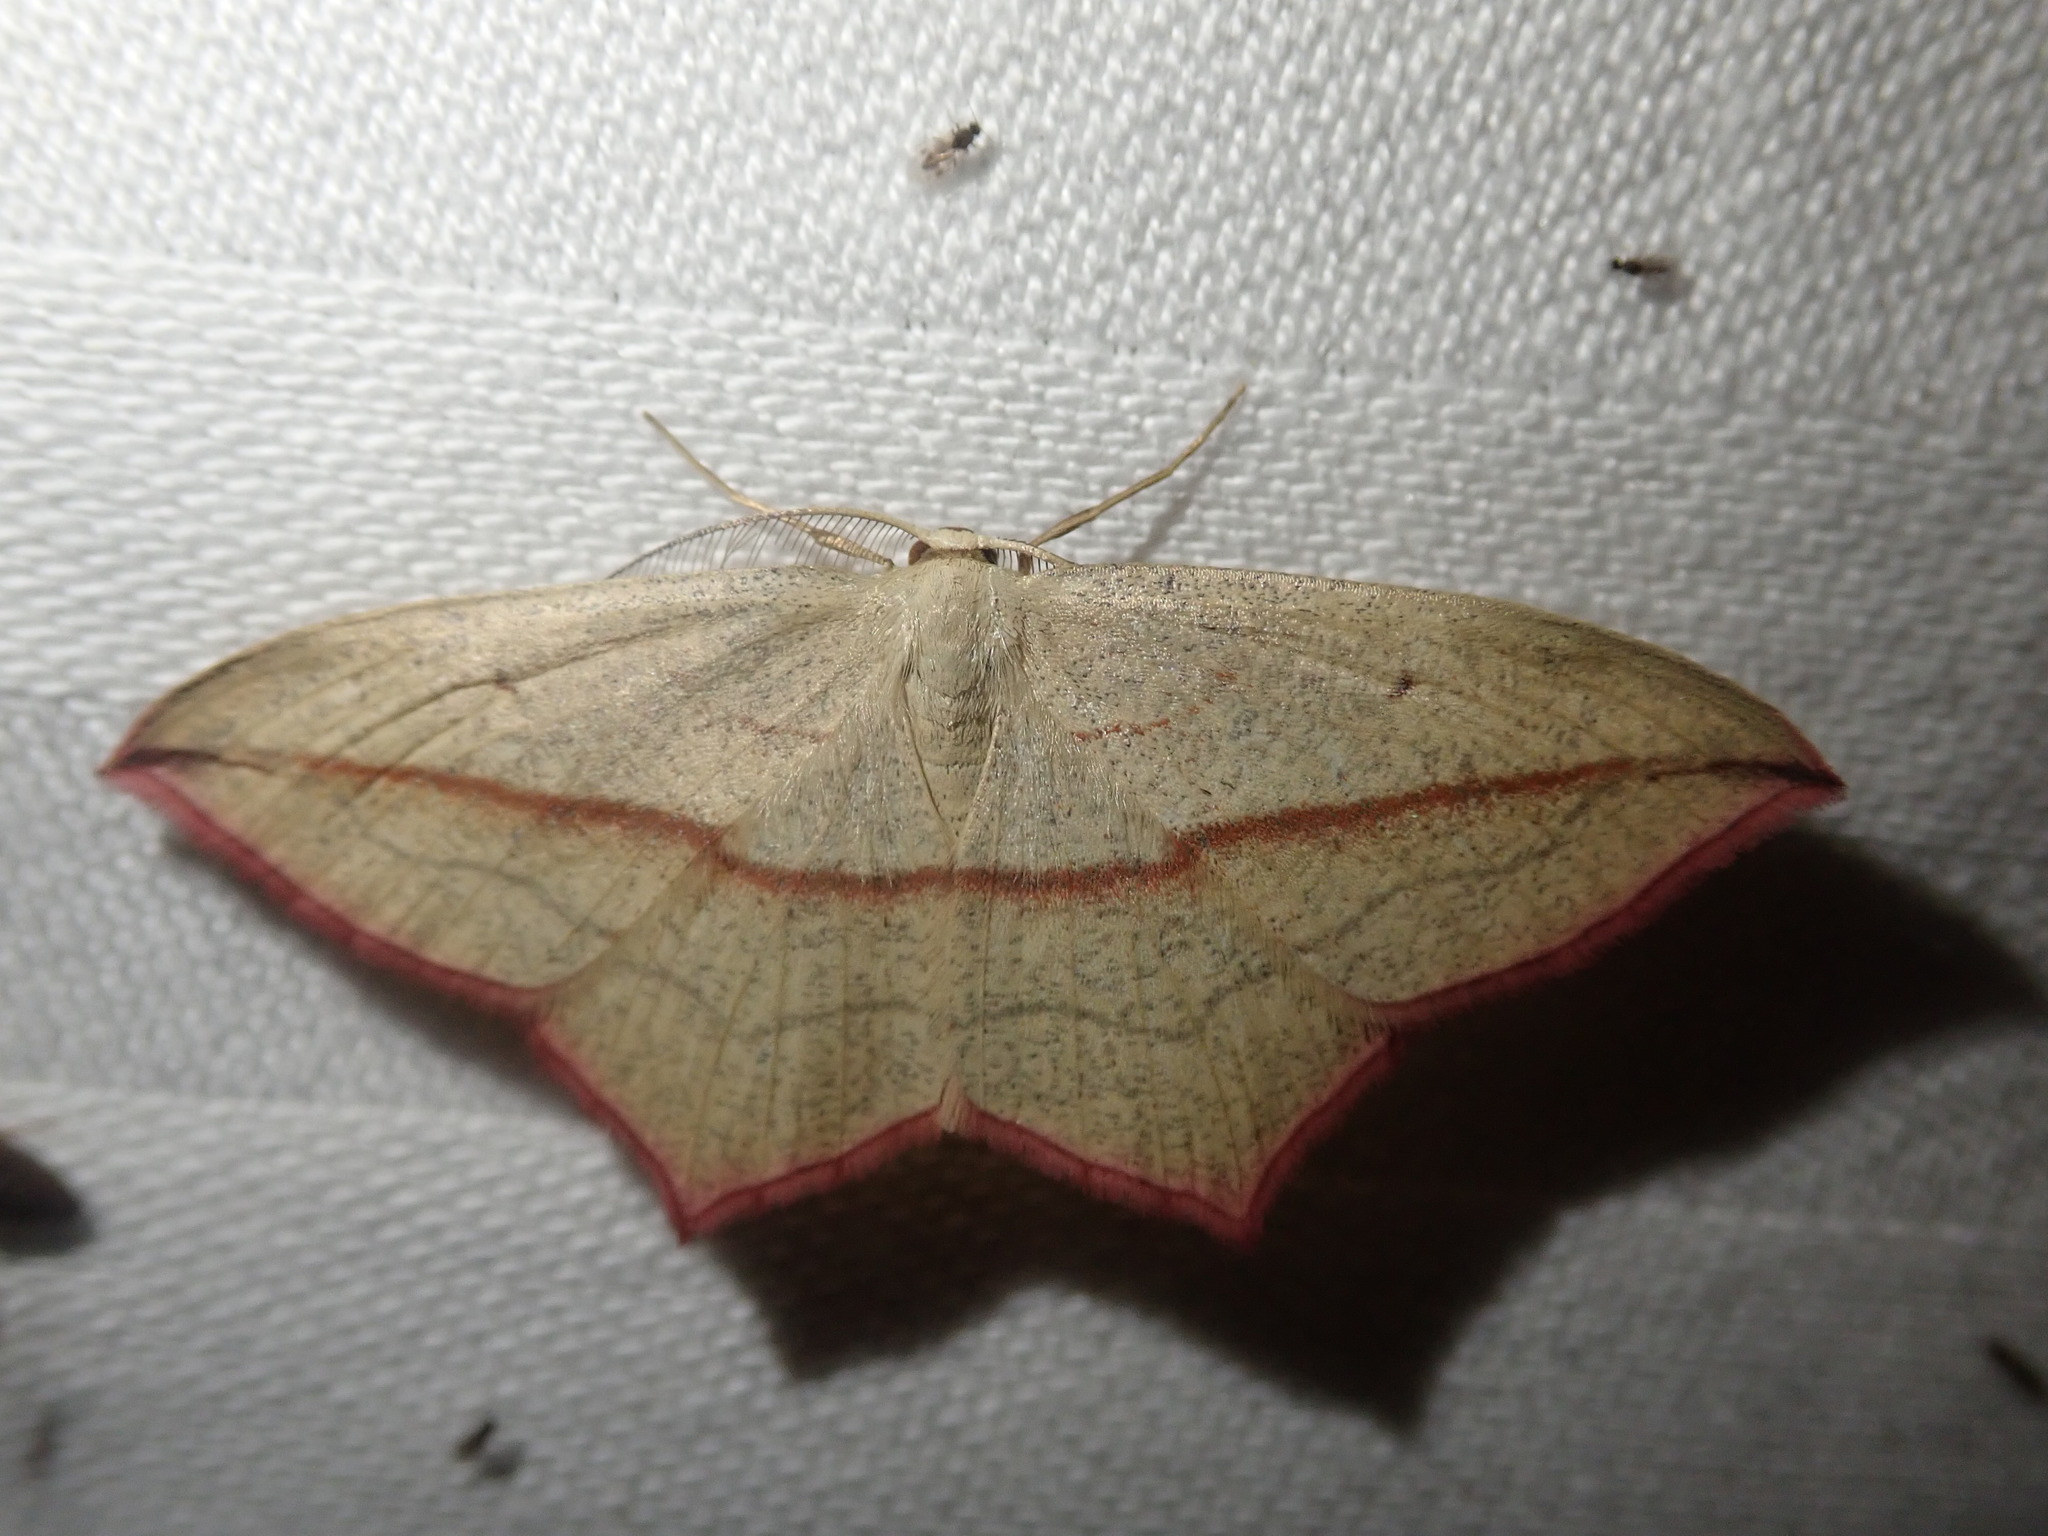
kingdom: Animalia
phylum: Arthropoda
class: Insecta
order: Lepidoptera
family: Geometridae
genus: Timandra
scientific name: Timandra comae
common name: Blood-vein
